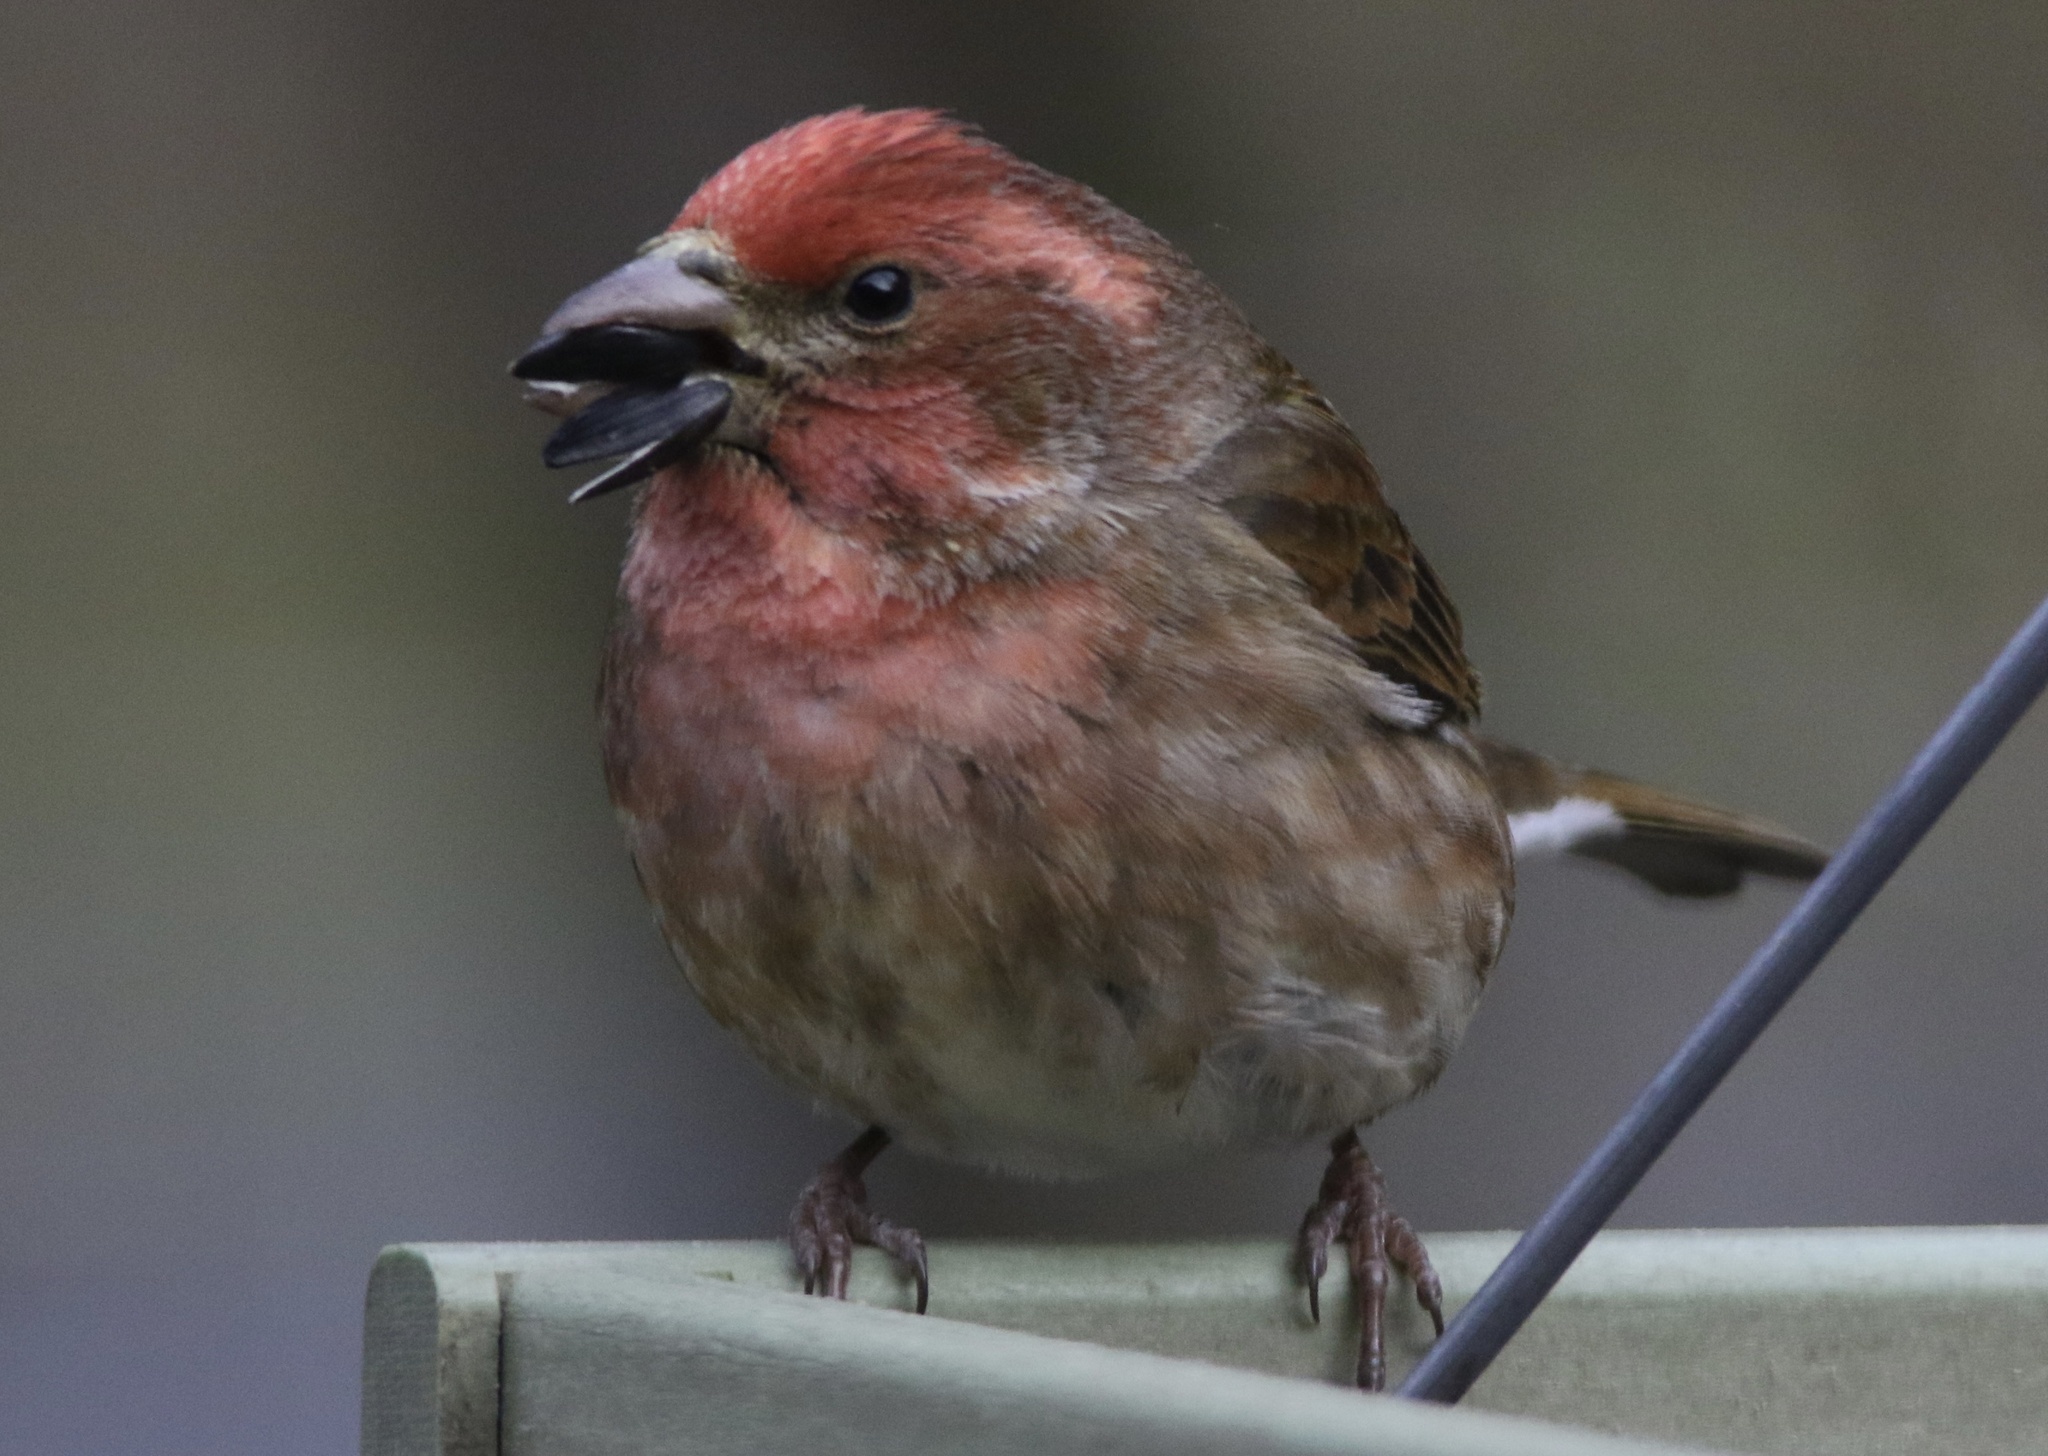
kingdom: Animalia
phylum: Chordata
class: Aves
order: Passeriformes
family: Fringillidae
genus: Haemorhous
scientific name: Haemorhous purpureus
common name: Purple finch
